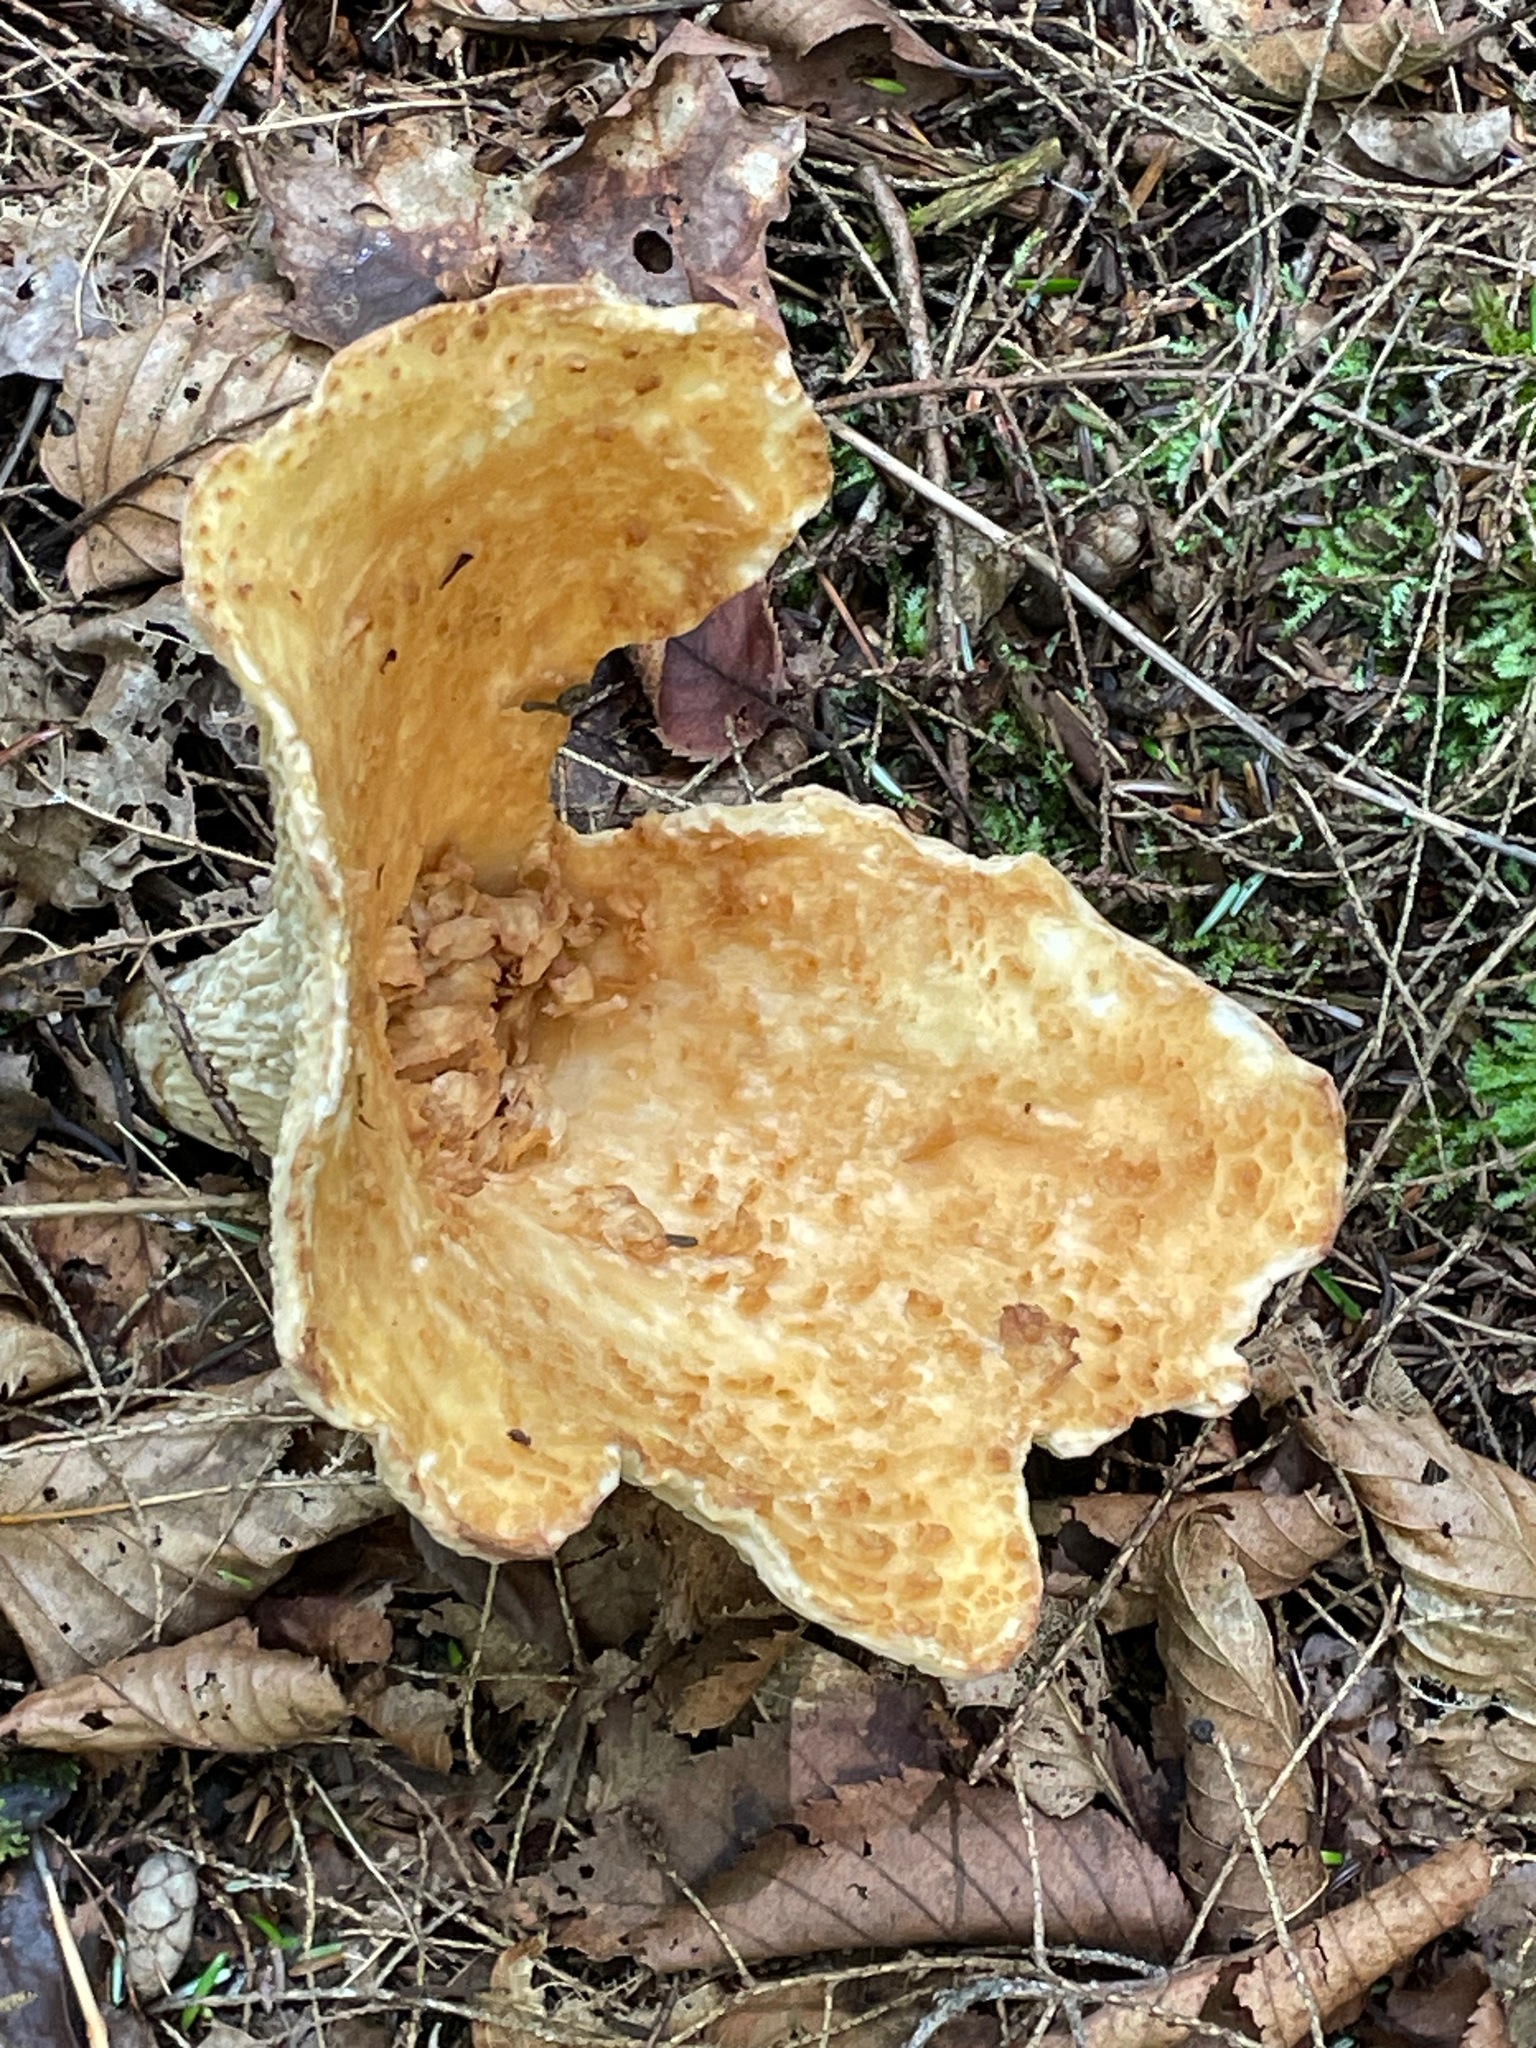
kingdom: Fungi
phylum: Basidiomycota
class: Agaricomycetes
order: Gomphales
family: Gomphaceae
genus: Turbinellus
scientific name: Turbinellus floccosus
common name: Scaly chanterelle
